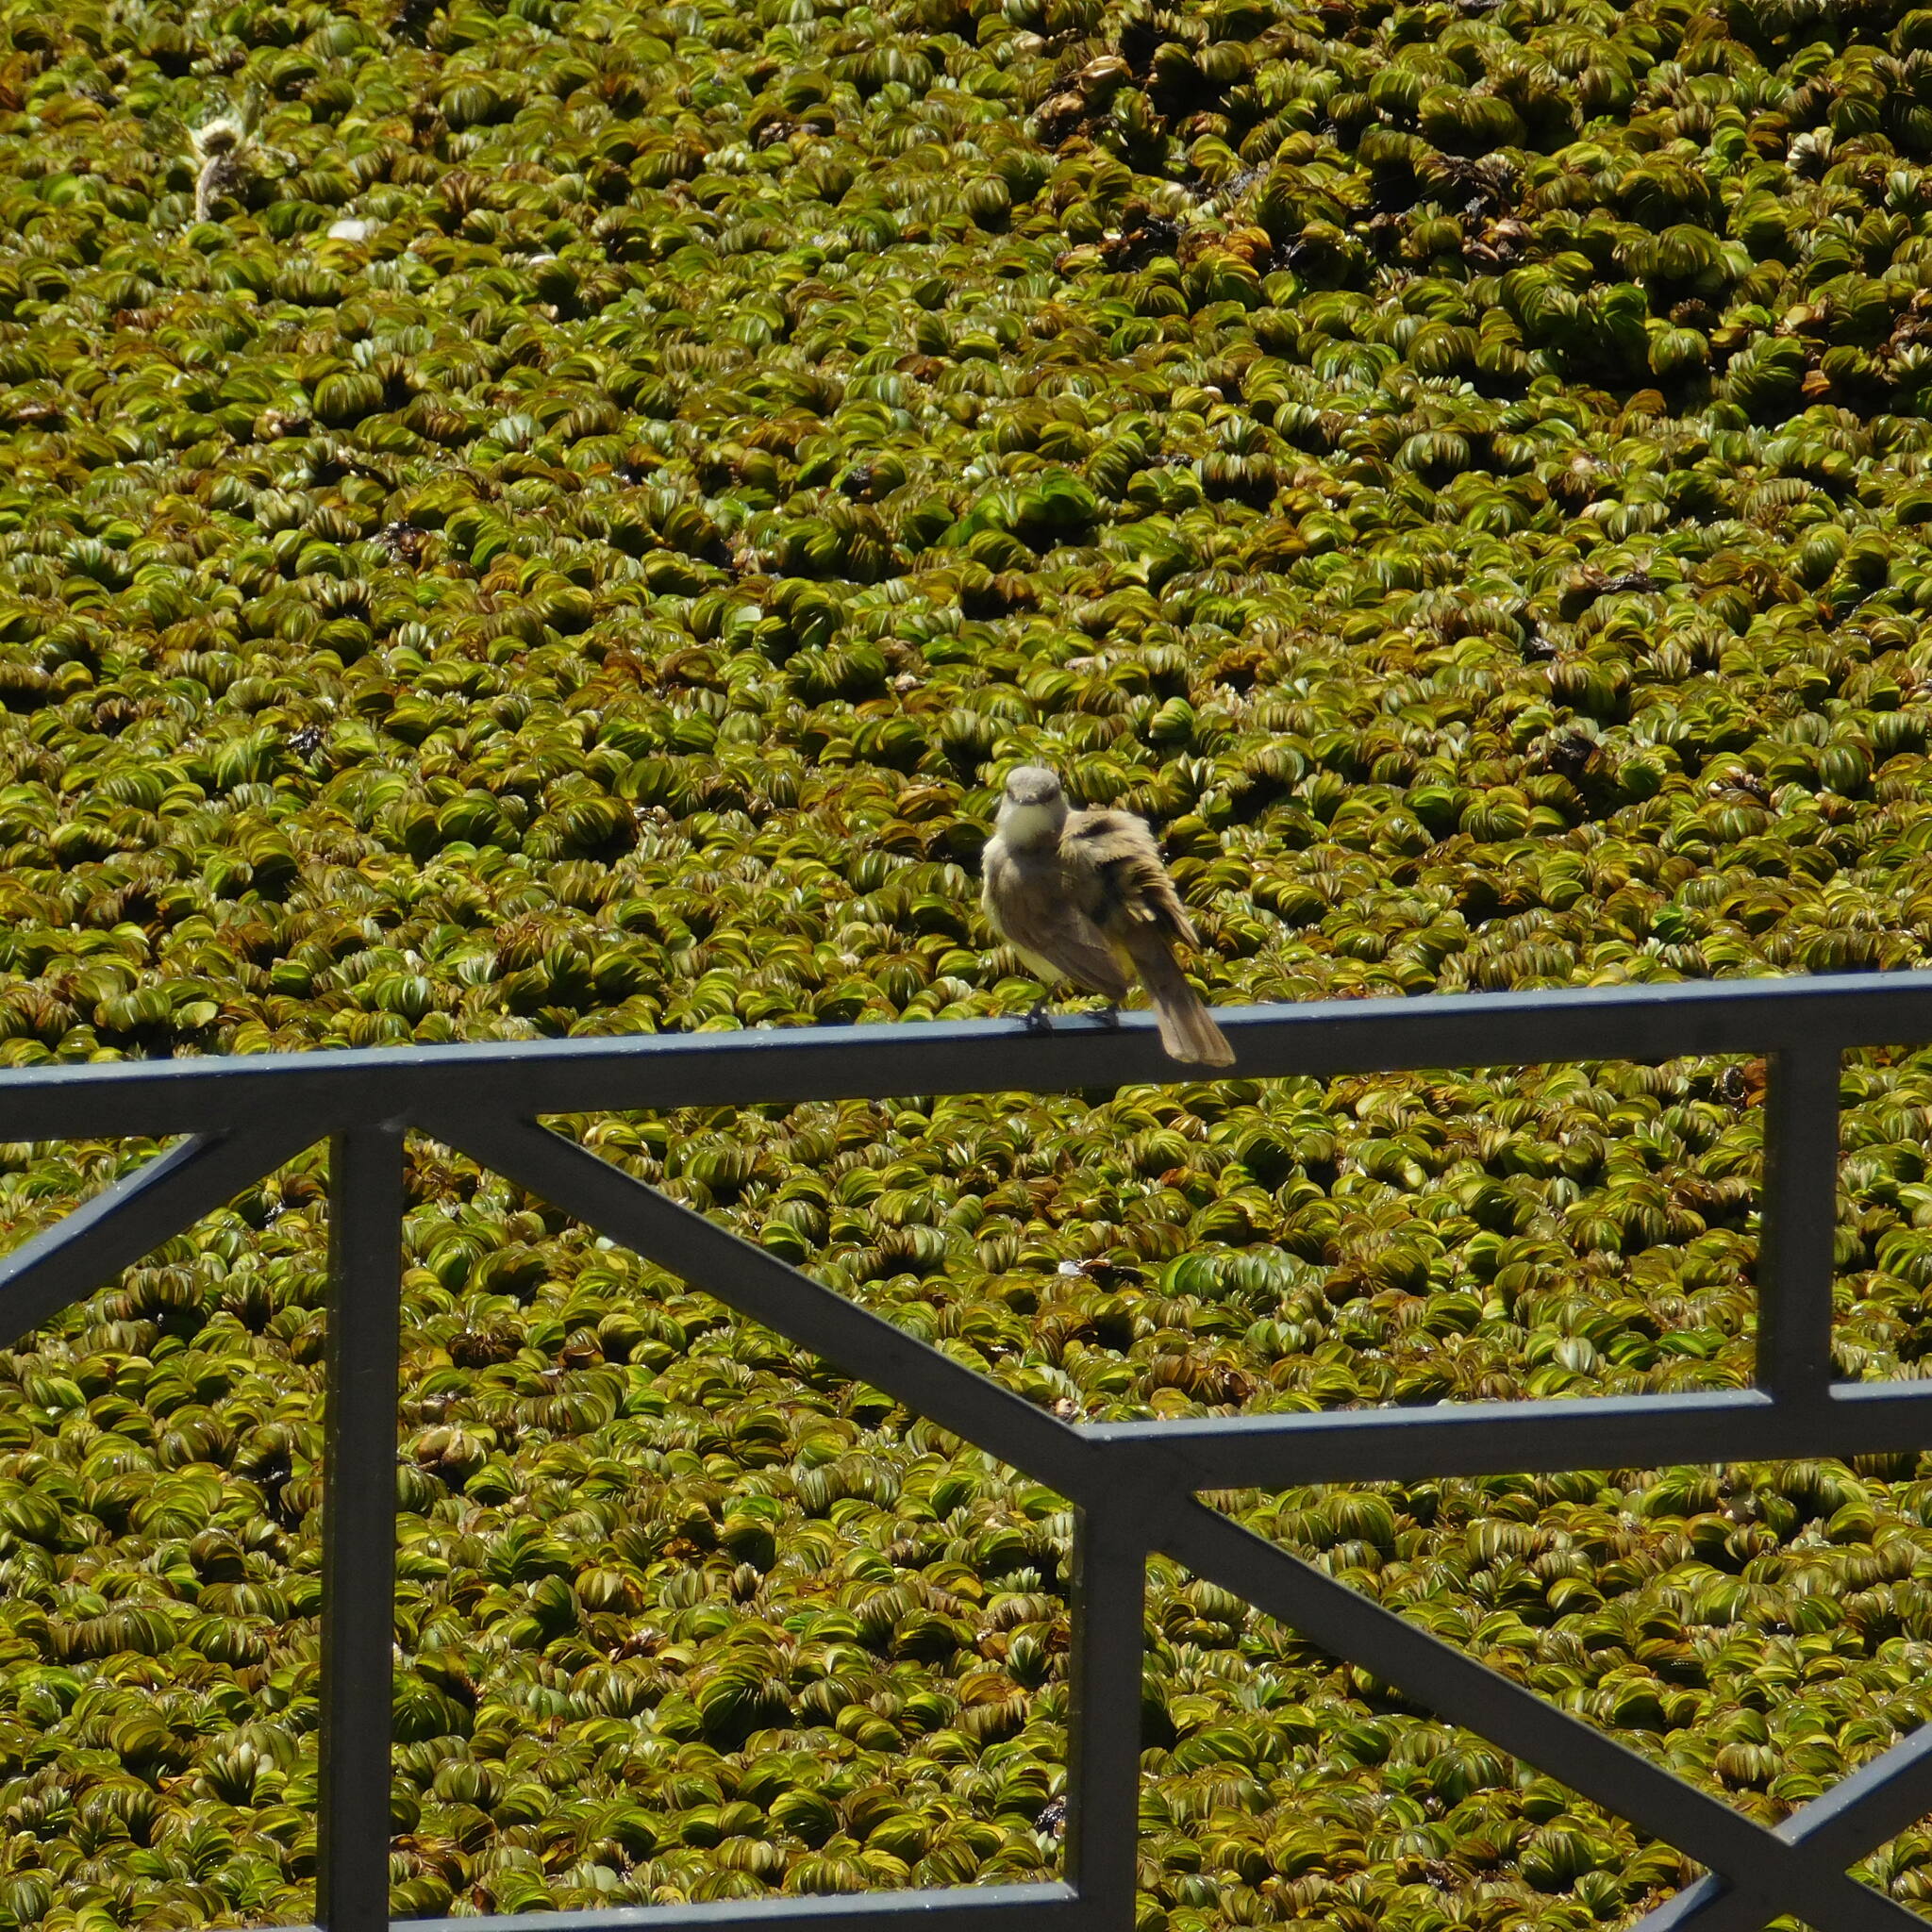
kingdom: Animalia
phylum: Chordata
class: Aves
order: Passeriformes
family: Tyrannidae
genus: Machetornis
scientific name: Machetornis rixosa
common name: Cattle tyrant
